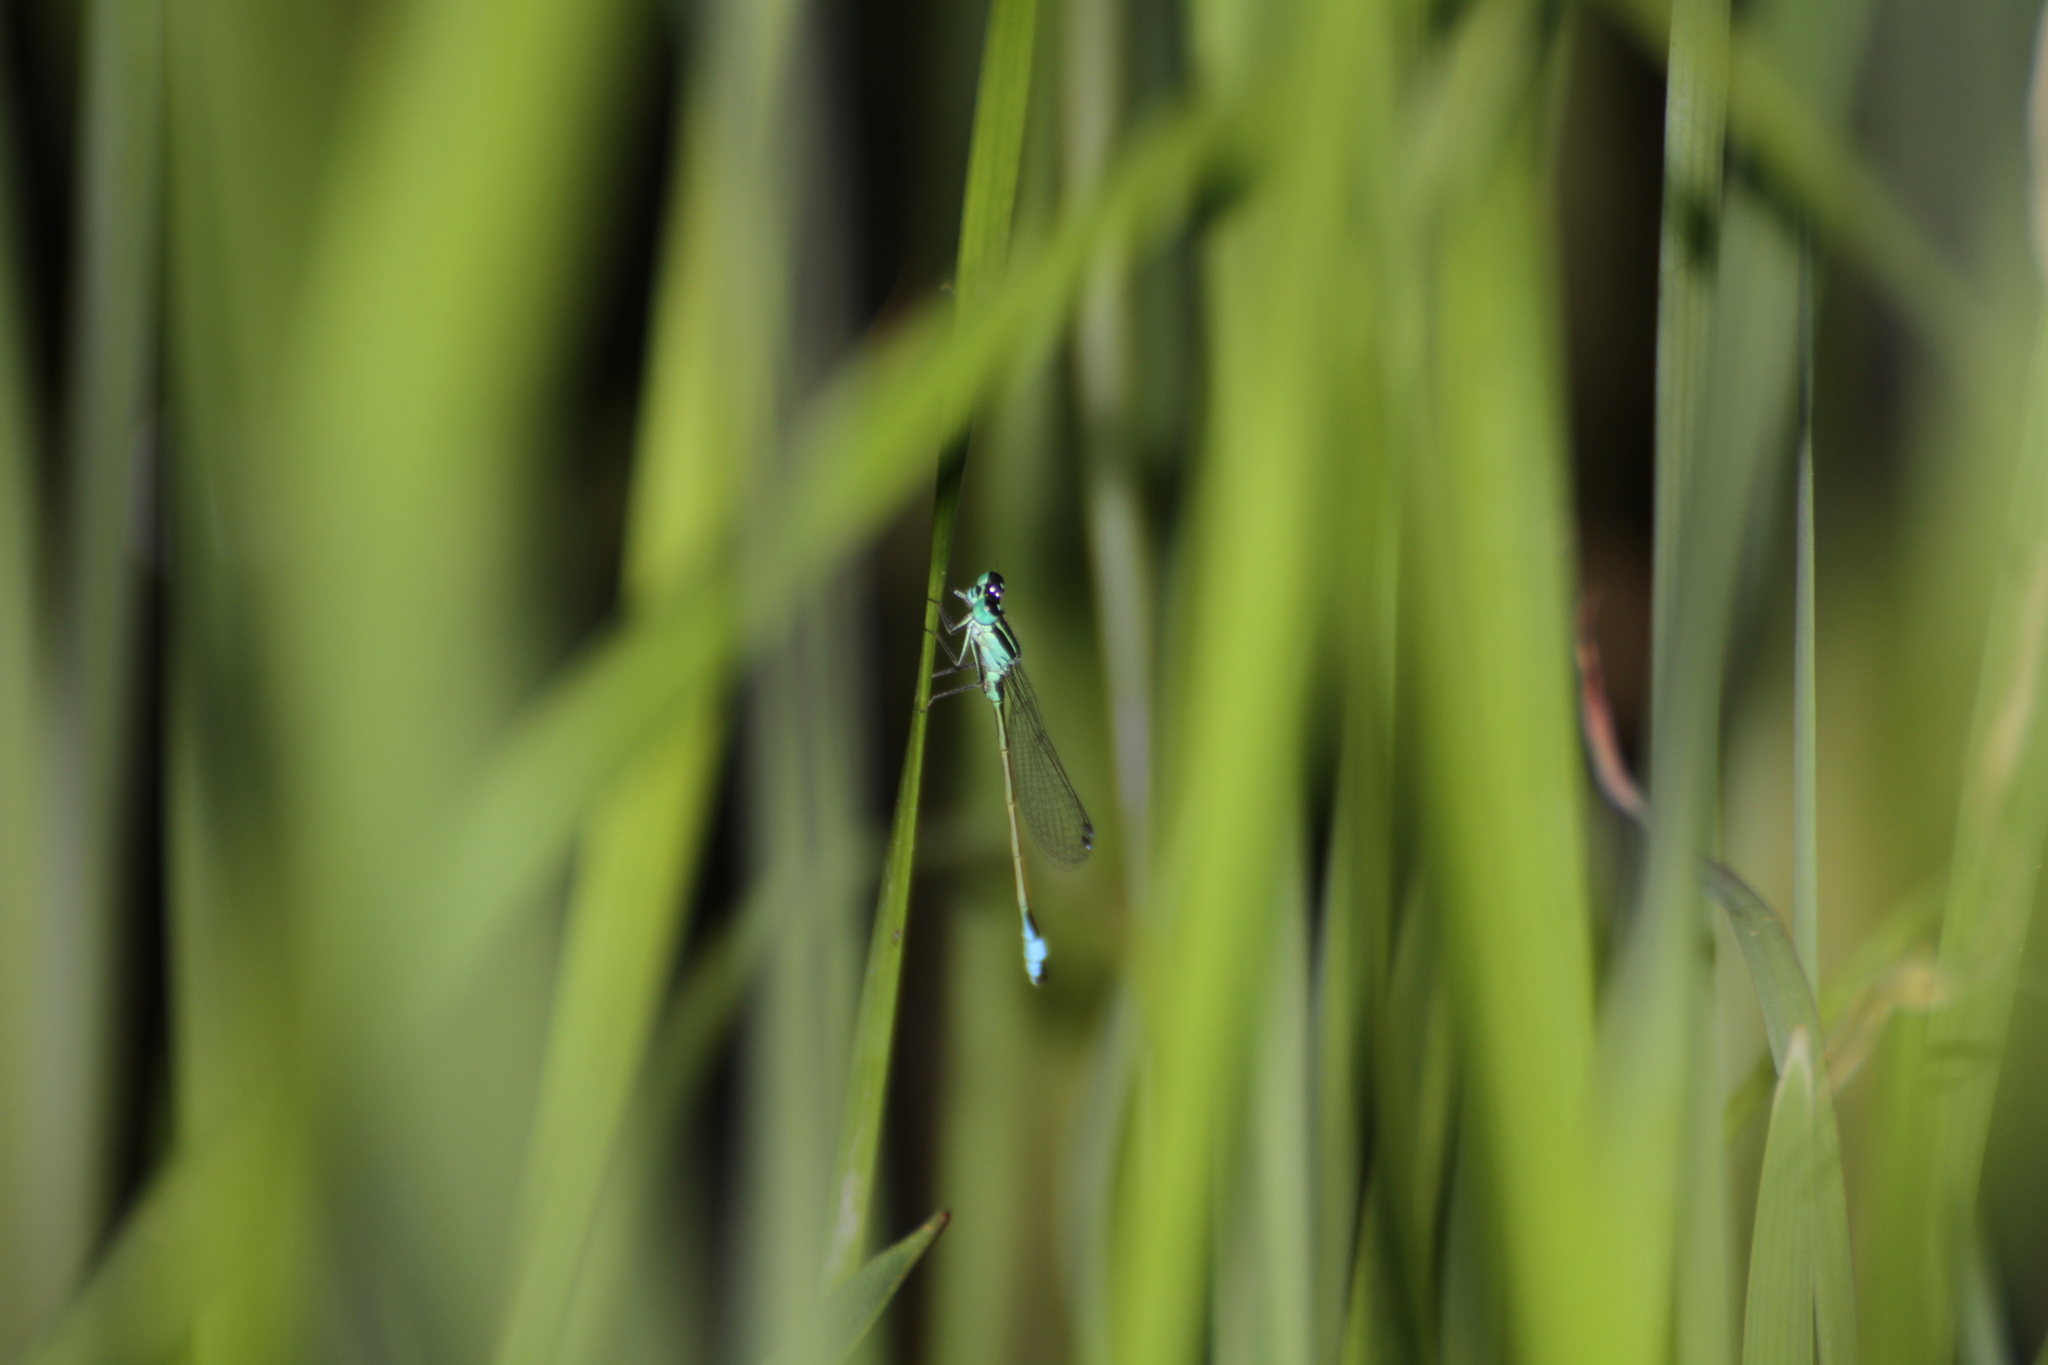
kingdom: Animalia
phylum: Arthropoda
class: Insecta
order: Odonata
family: Coenagrionidae
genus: Ischnura
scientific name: Ischnura elegans
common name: Blue-tailed damselfly
